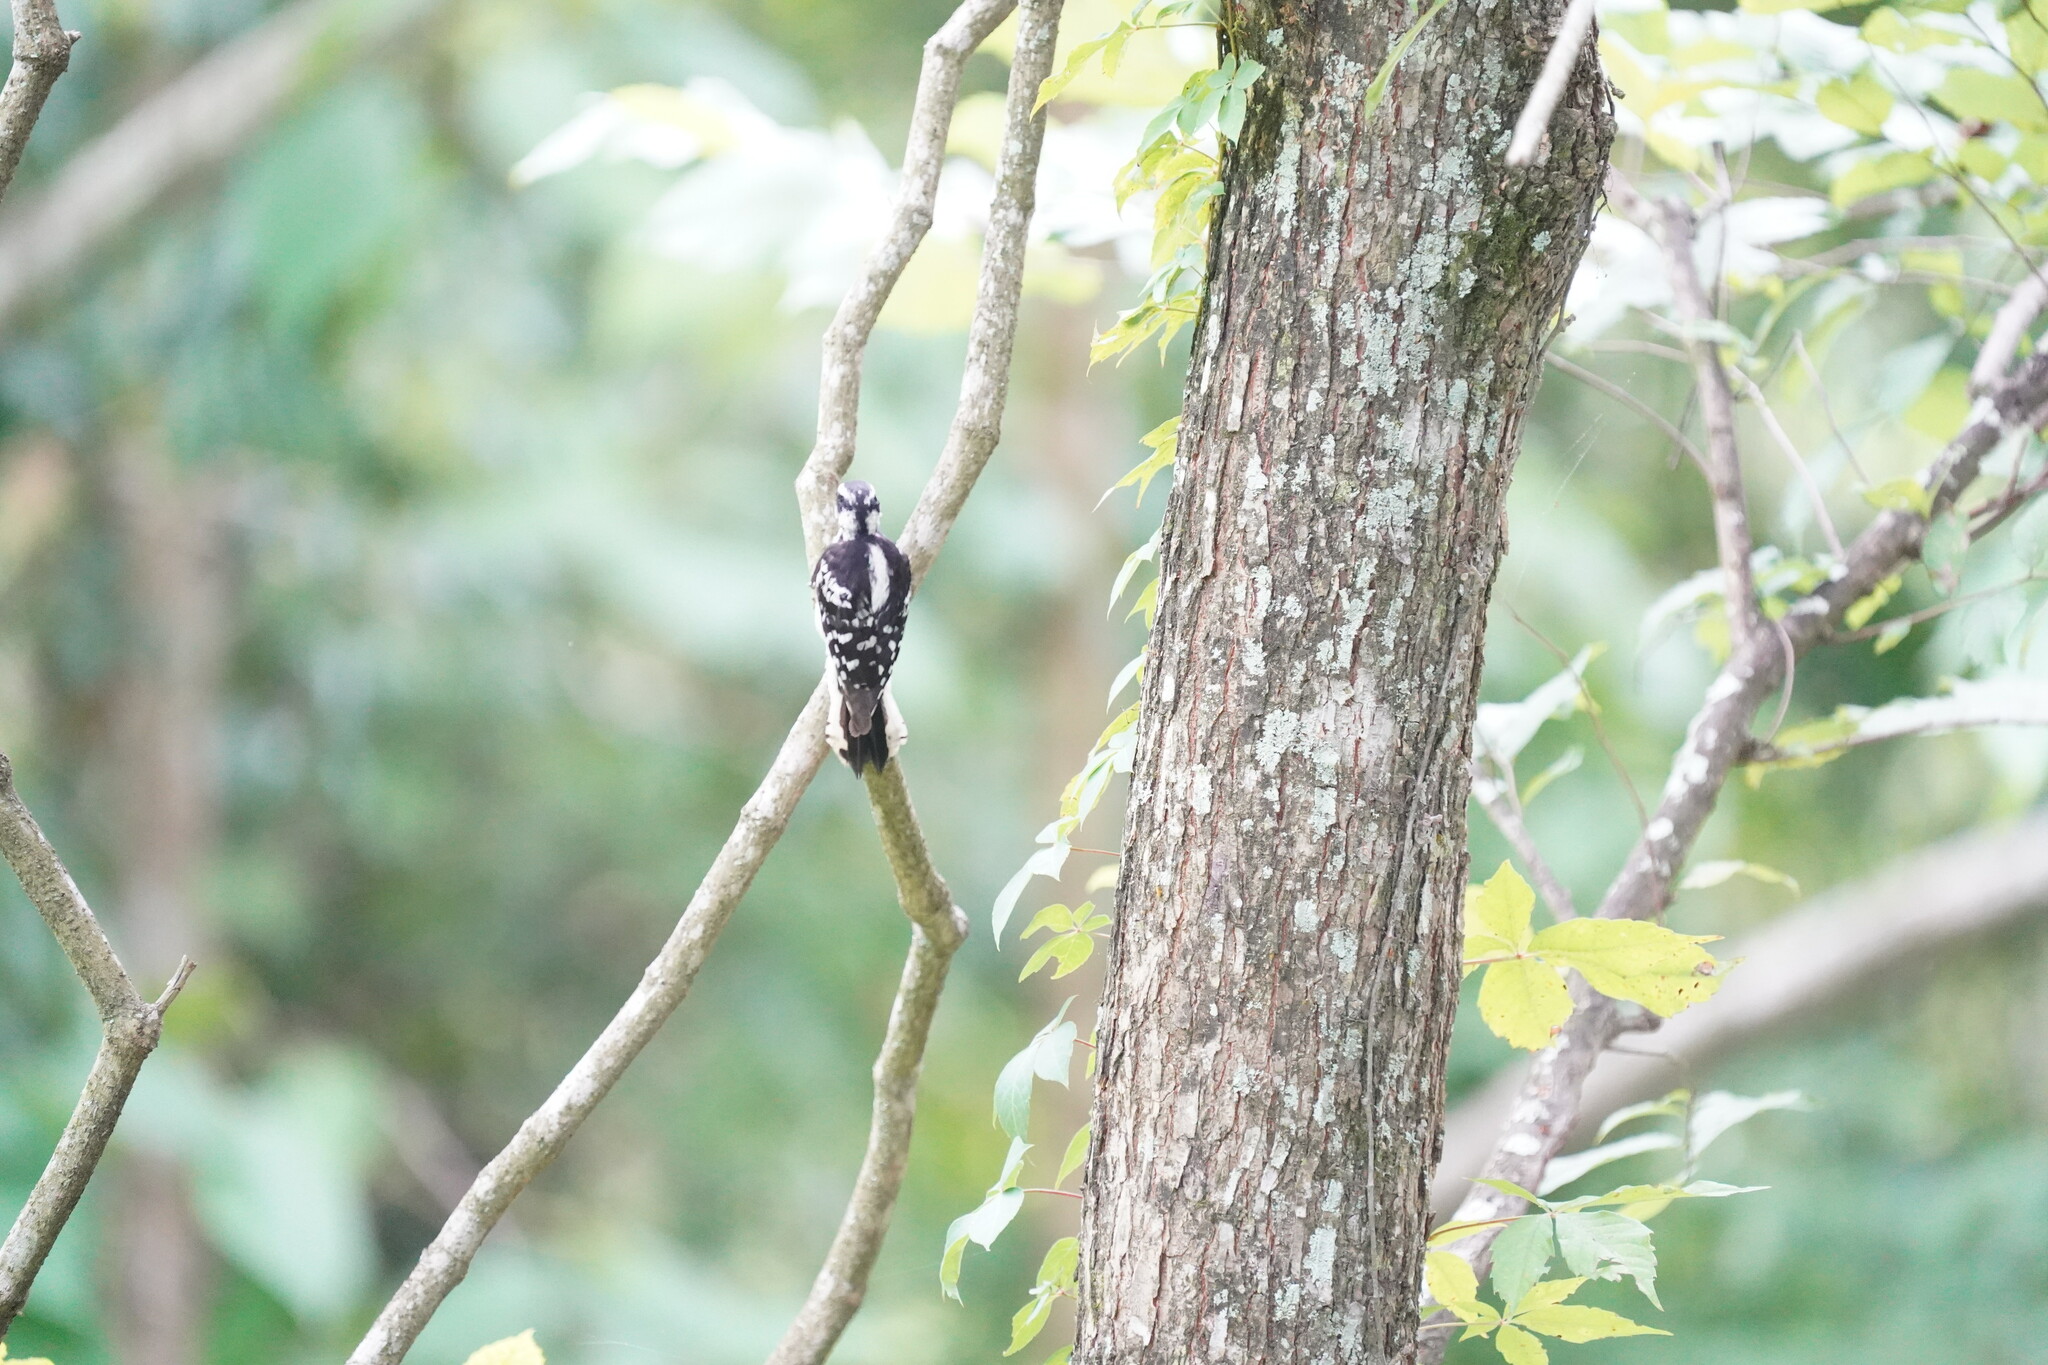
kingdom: Animalia
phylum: Chordata
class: Aves
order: Piciformes
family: Picidae
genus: Dryobates
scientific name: Dryobates pubescens
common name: Downy woodpecker
